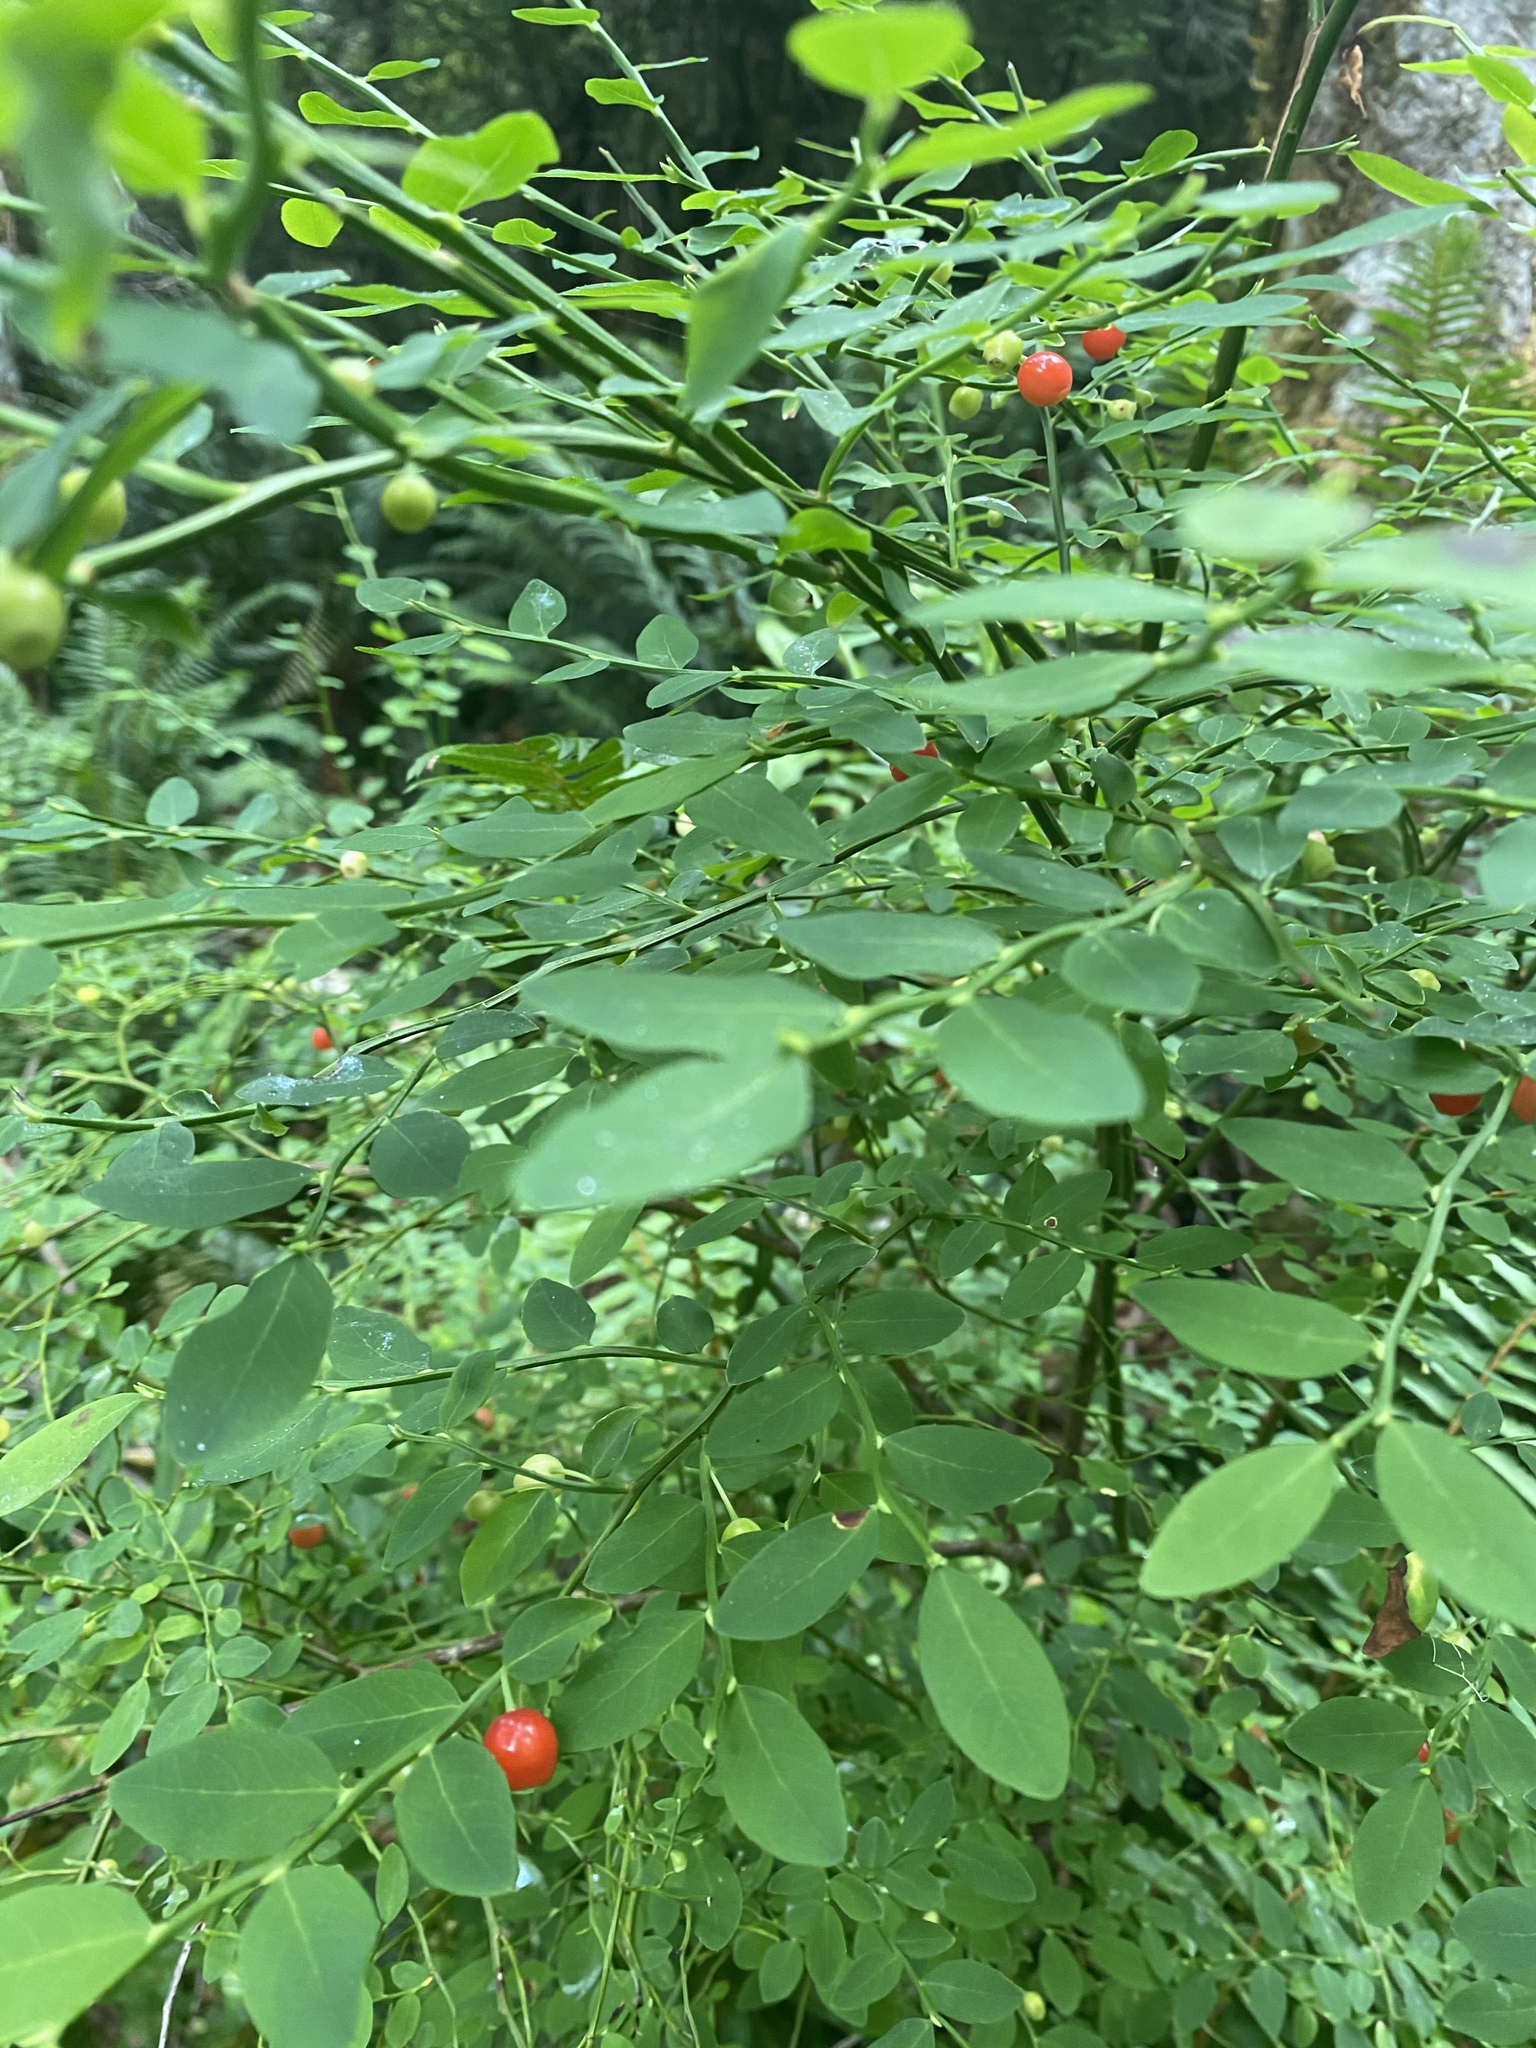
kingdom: Plantae
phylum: Tracheophyta
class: Magnoliopsida
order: Ericales
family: Ericaceae
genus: Vaccinium
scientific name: Vaccinium parvifolium
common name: Red-huckleberry
